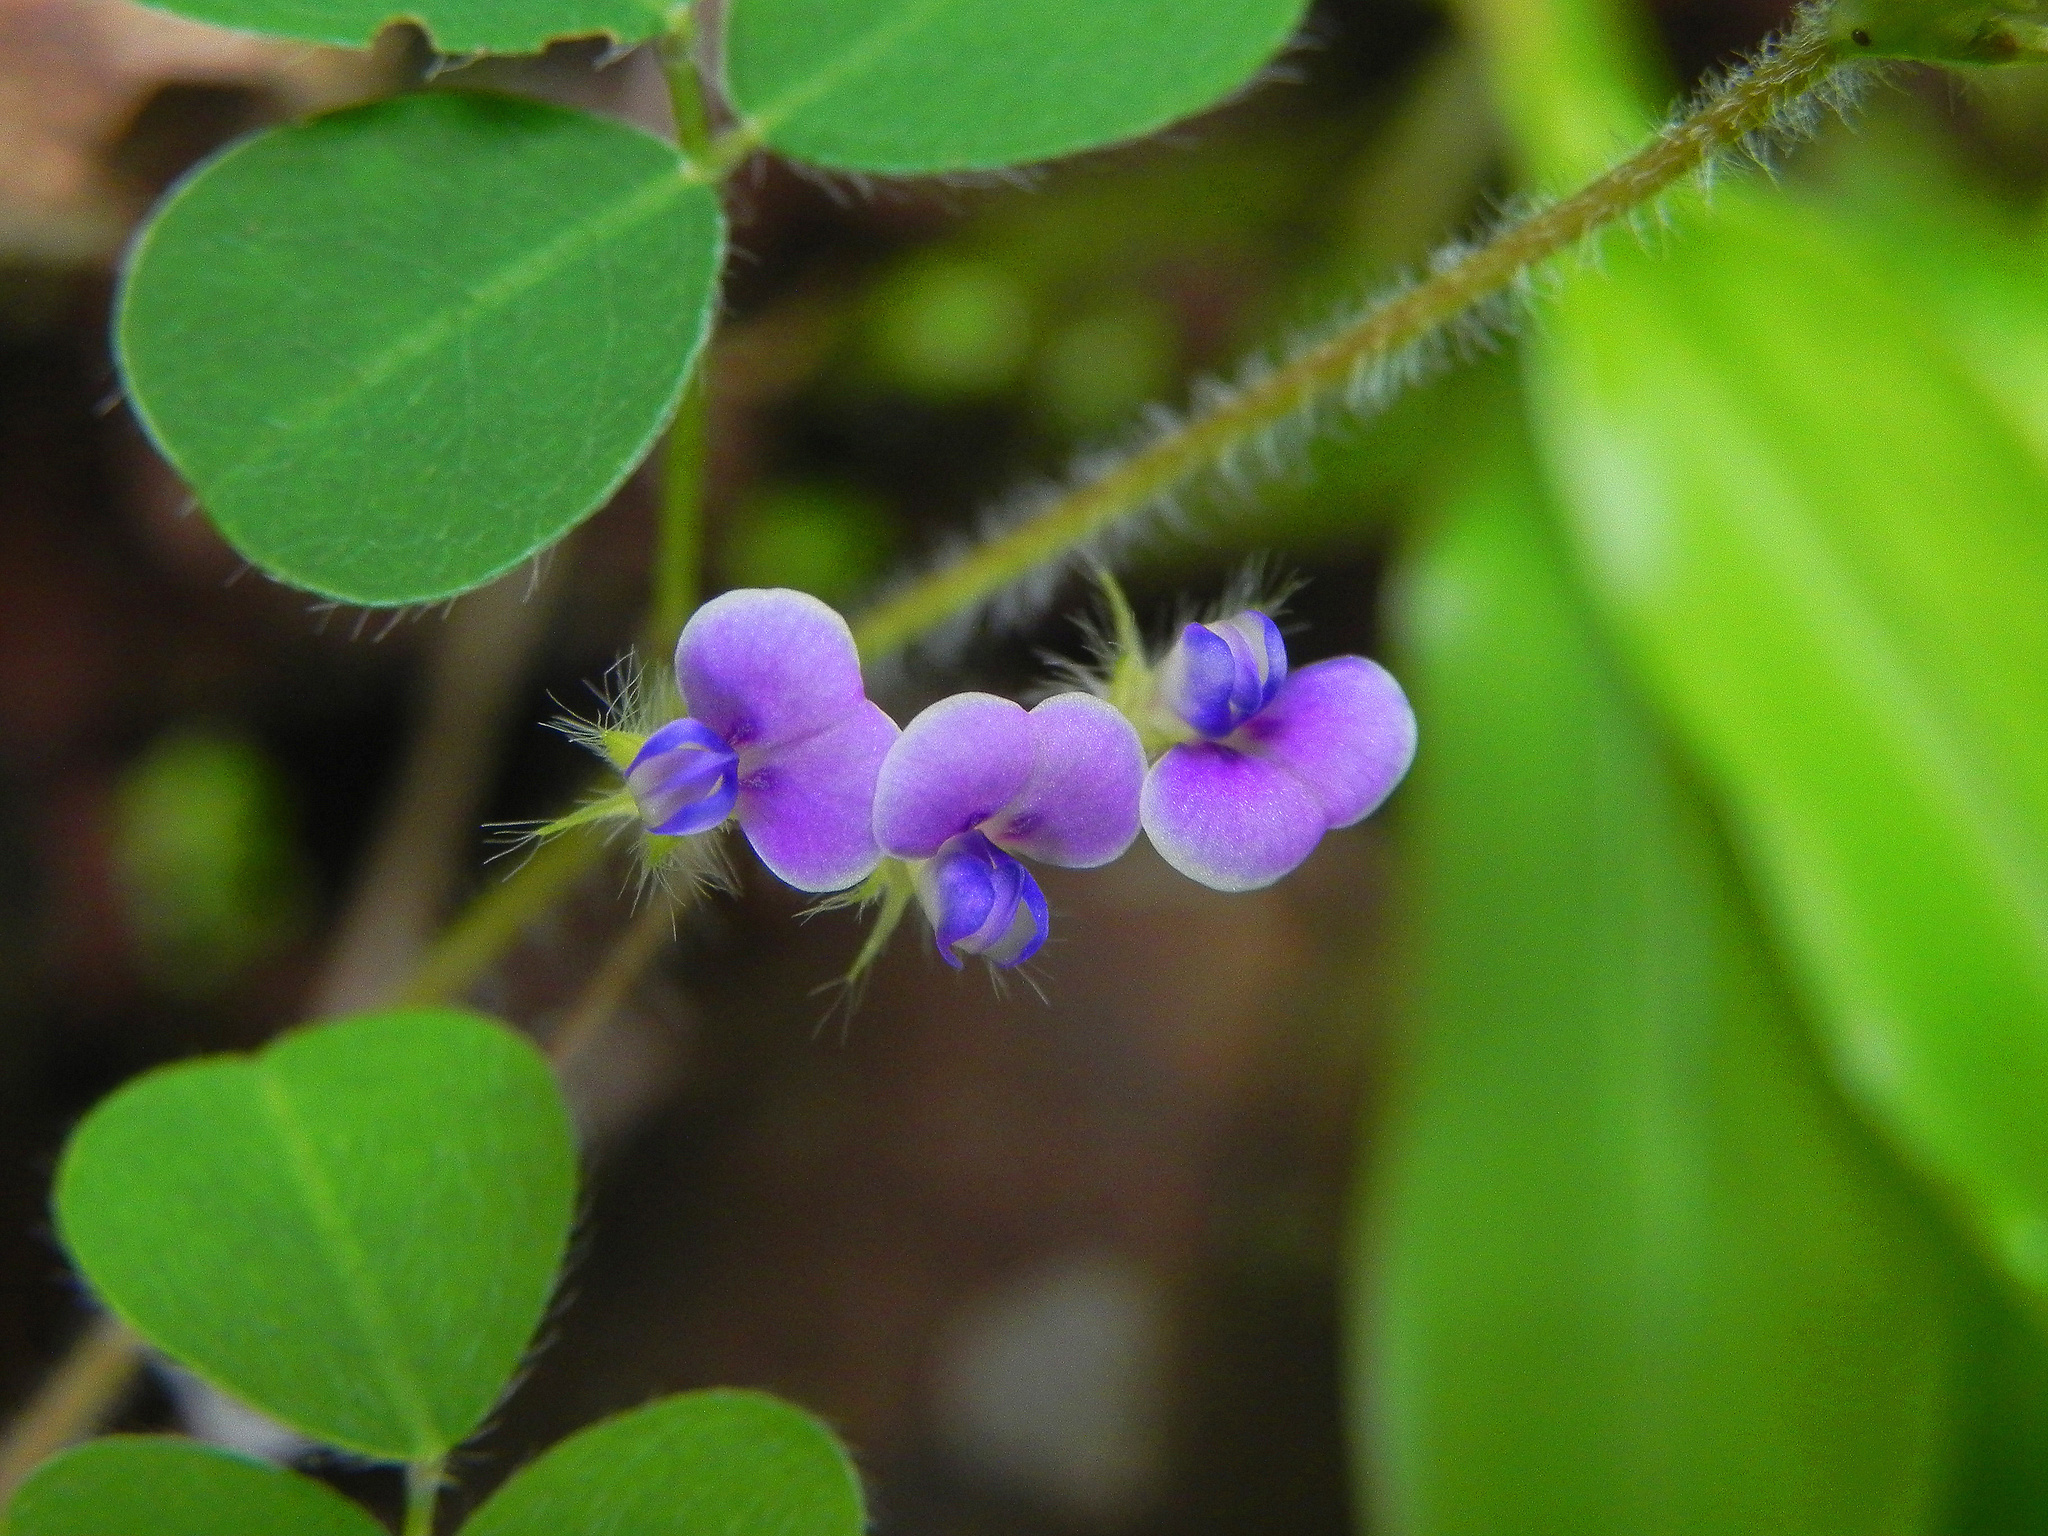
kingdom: Plantae
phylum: Tracheophyta
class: Magnoliopsida
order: Fabales
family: Fabaceae
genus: Grona
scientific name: Grona triflora
